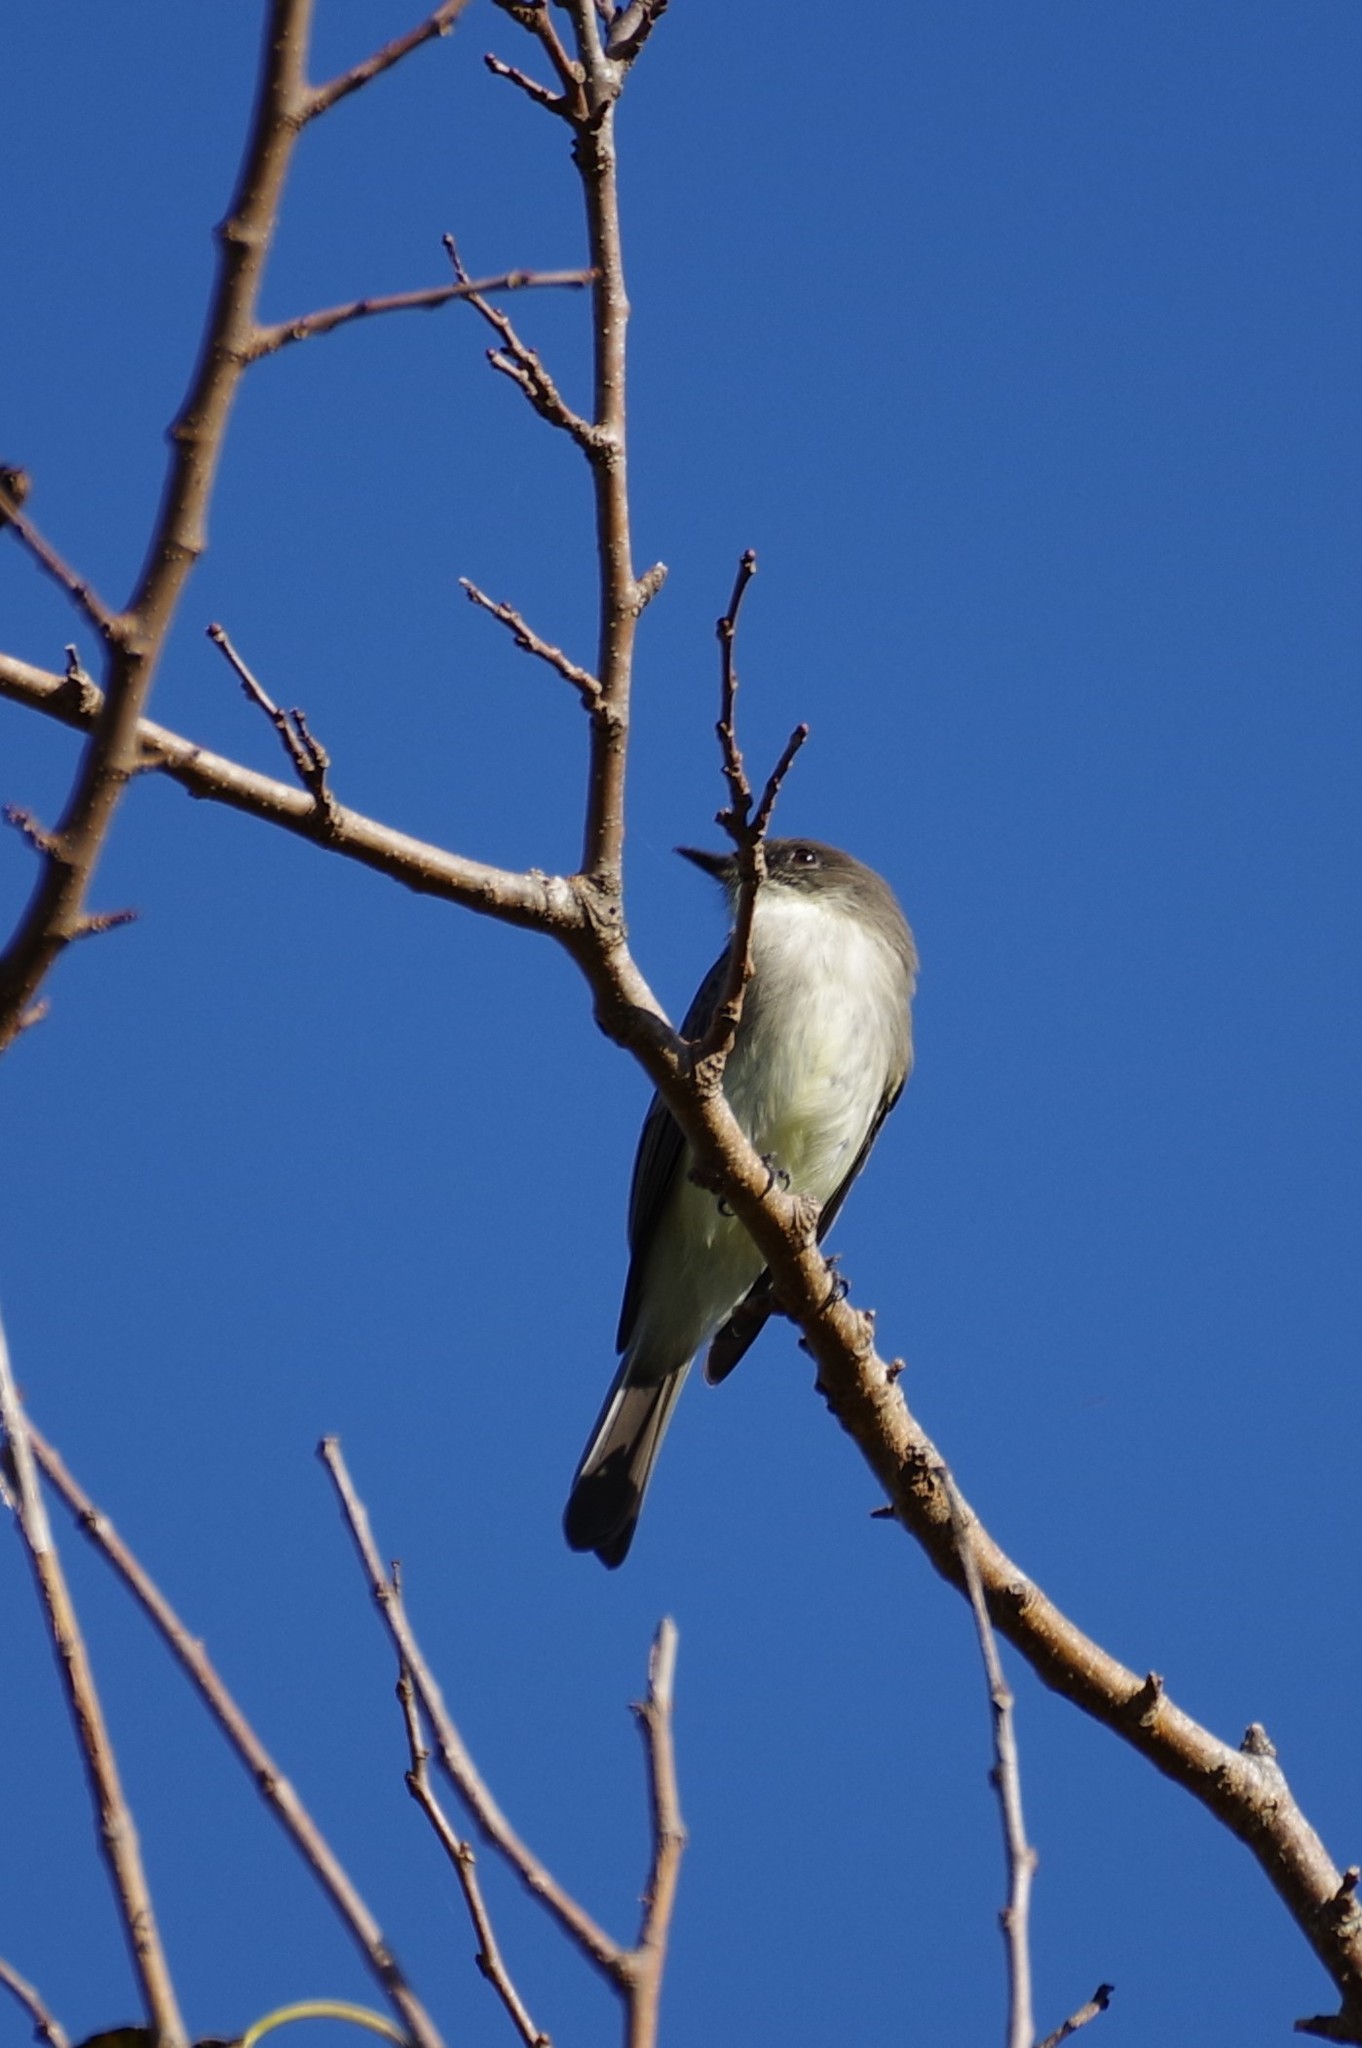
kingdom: Animalia
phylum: Chordata
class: Aves
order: Passeriformes
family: Tyrannidae
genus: Sayornis
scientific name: Sayornis phoebe
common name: Eastern phoebe
